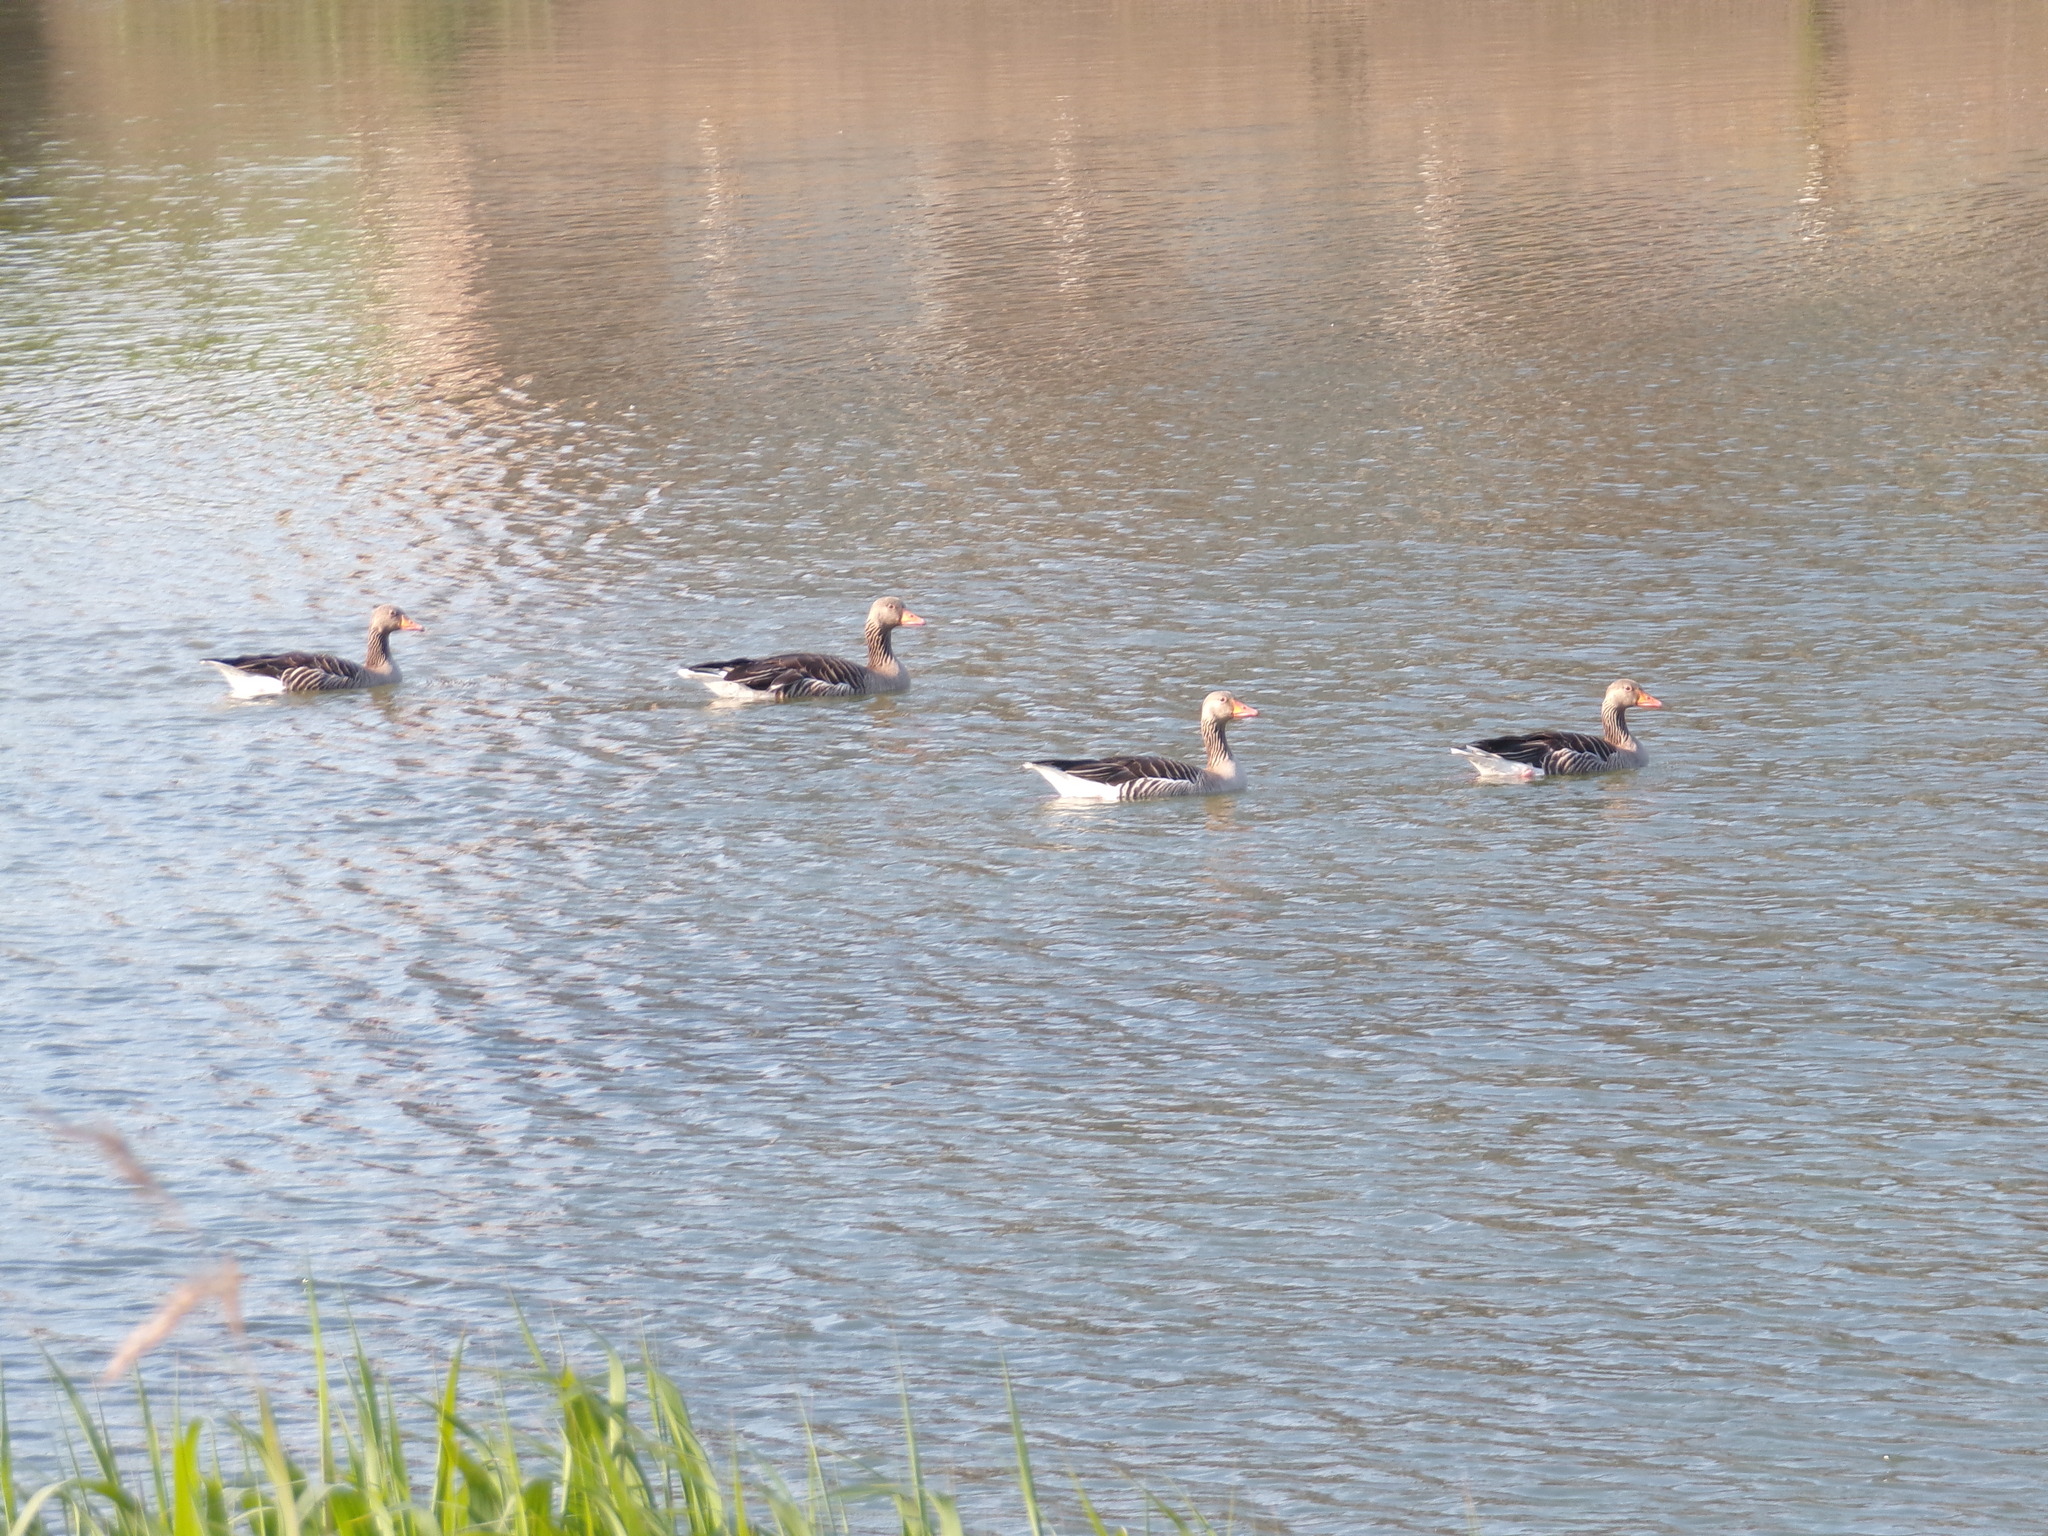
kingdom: Animalia
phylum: Chordata
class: Aves
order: Anseriformes
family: Anatidae
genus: Anser
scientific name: Anser anser
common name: Greylag goose
